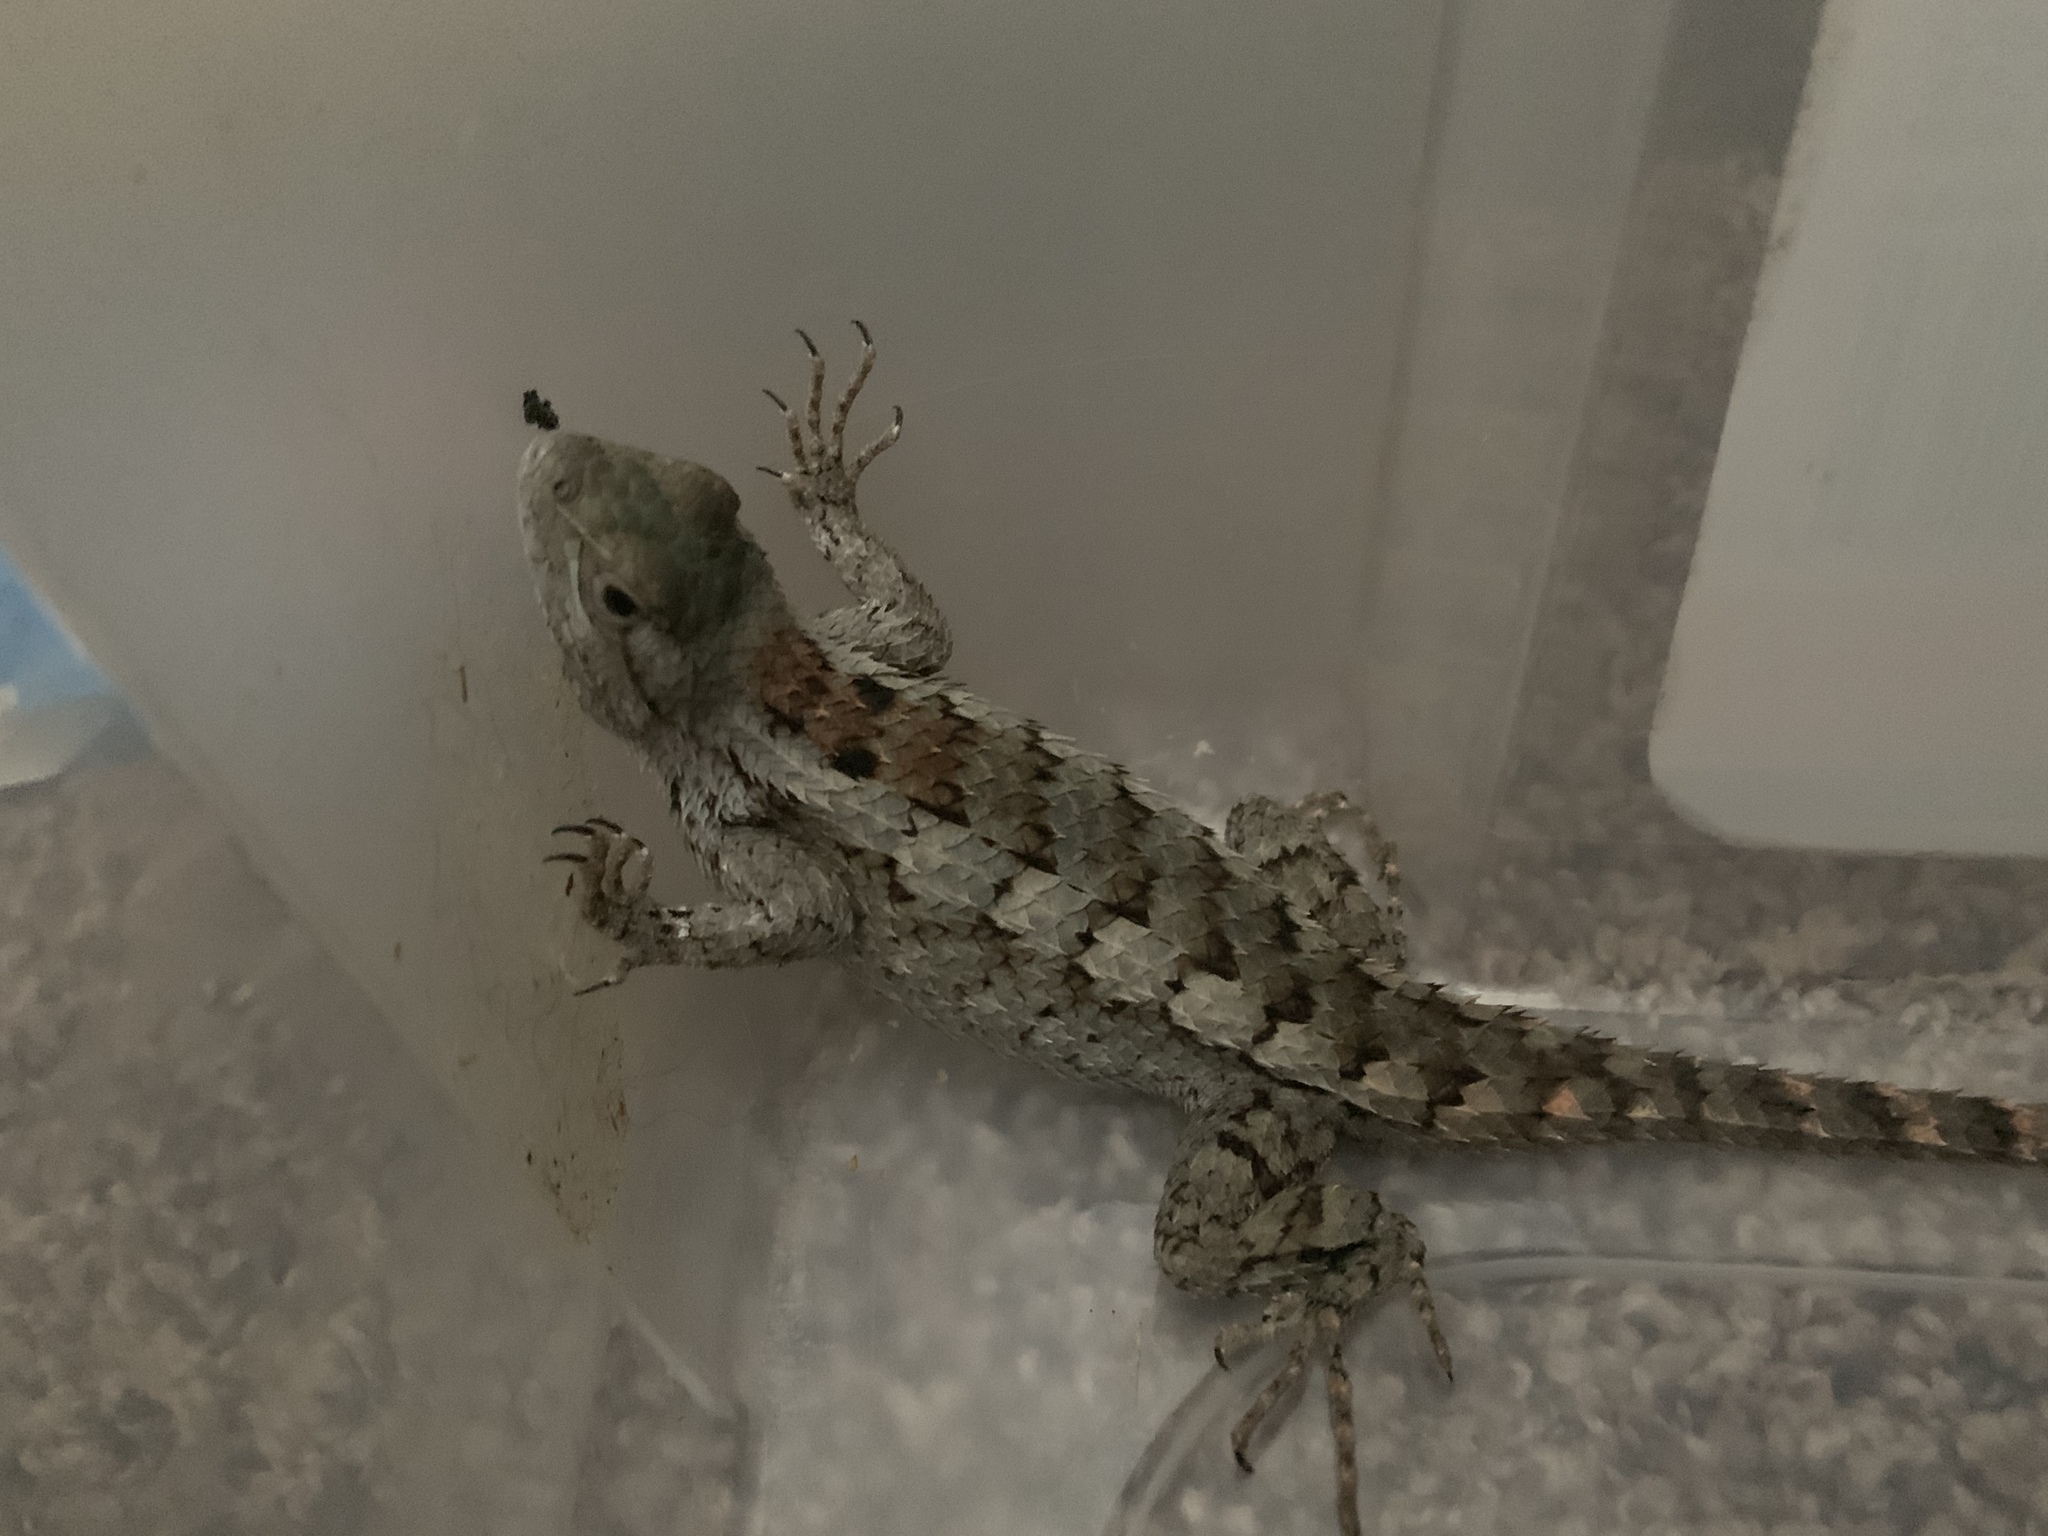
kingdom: Animalia
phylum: Chordata
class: Squamata
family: Phrynosomatidae
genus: Sceloporus
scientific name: Sceloporus olivaceus
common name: Texas spiny lizard
